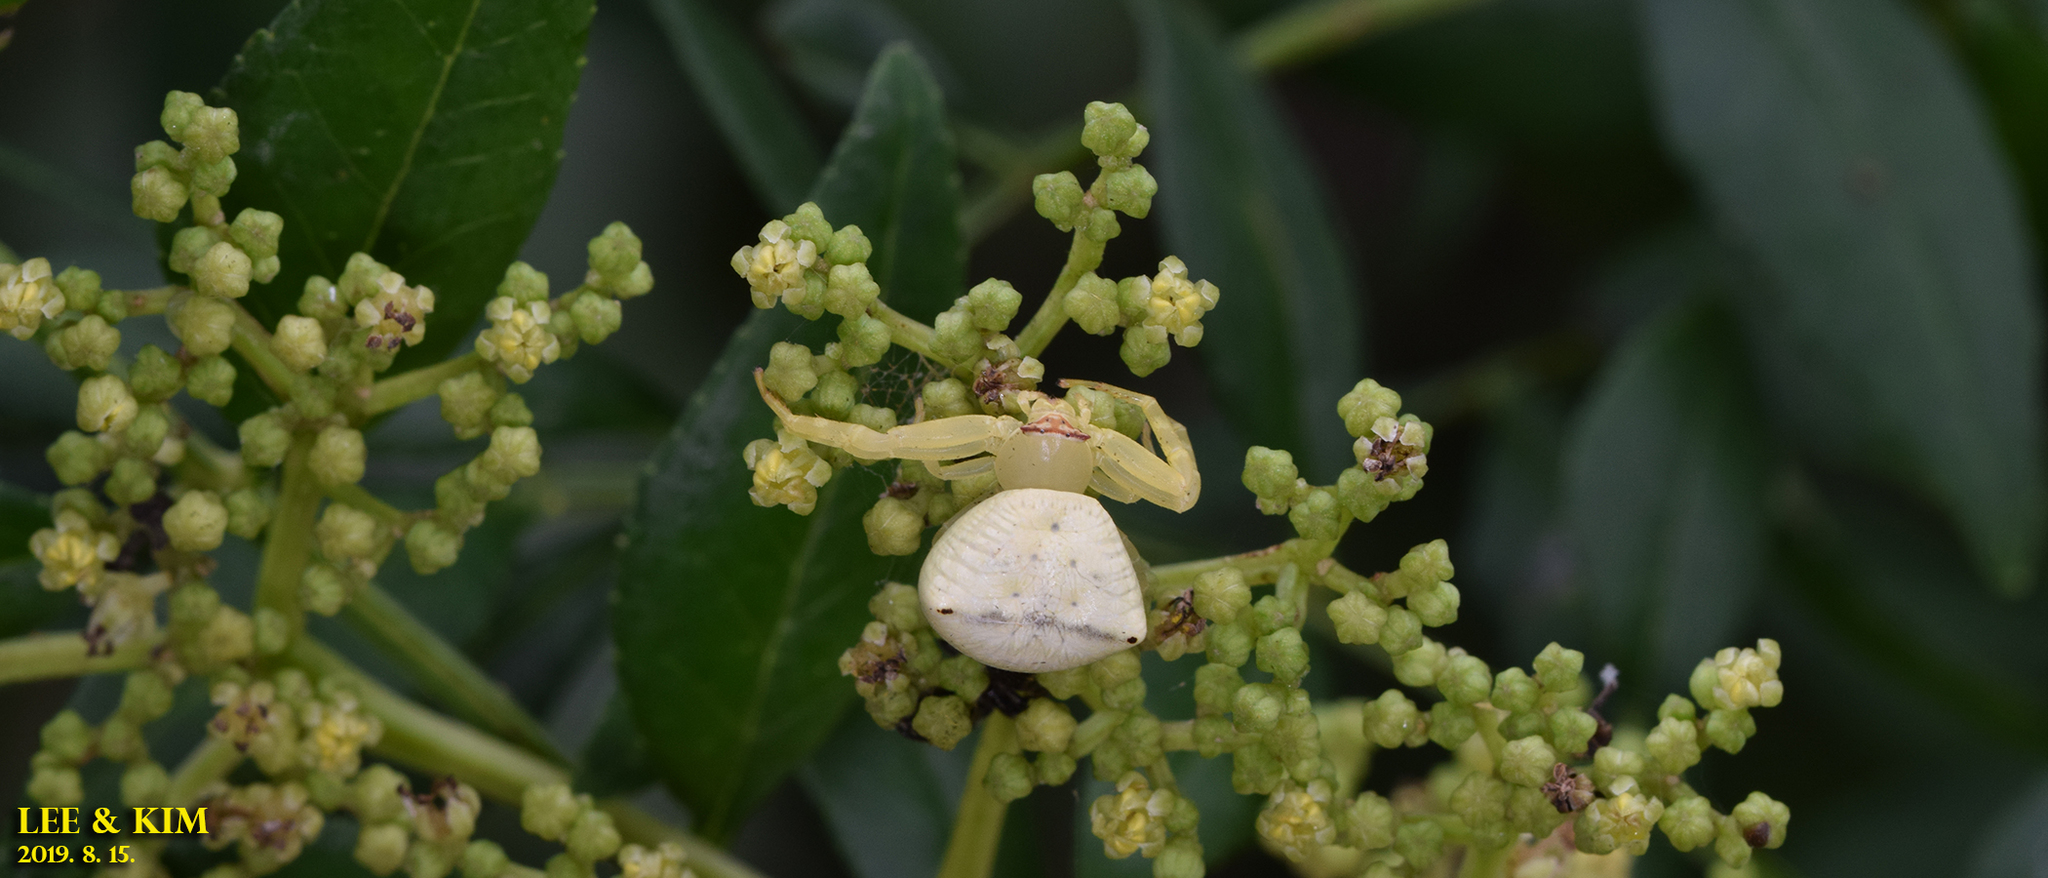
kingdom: Animalia
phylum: Arthropoda
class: Arachnida
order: Araneae
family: Thomisidae
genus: Thomisus
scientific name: Thomisus labefactus
